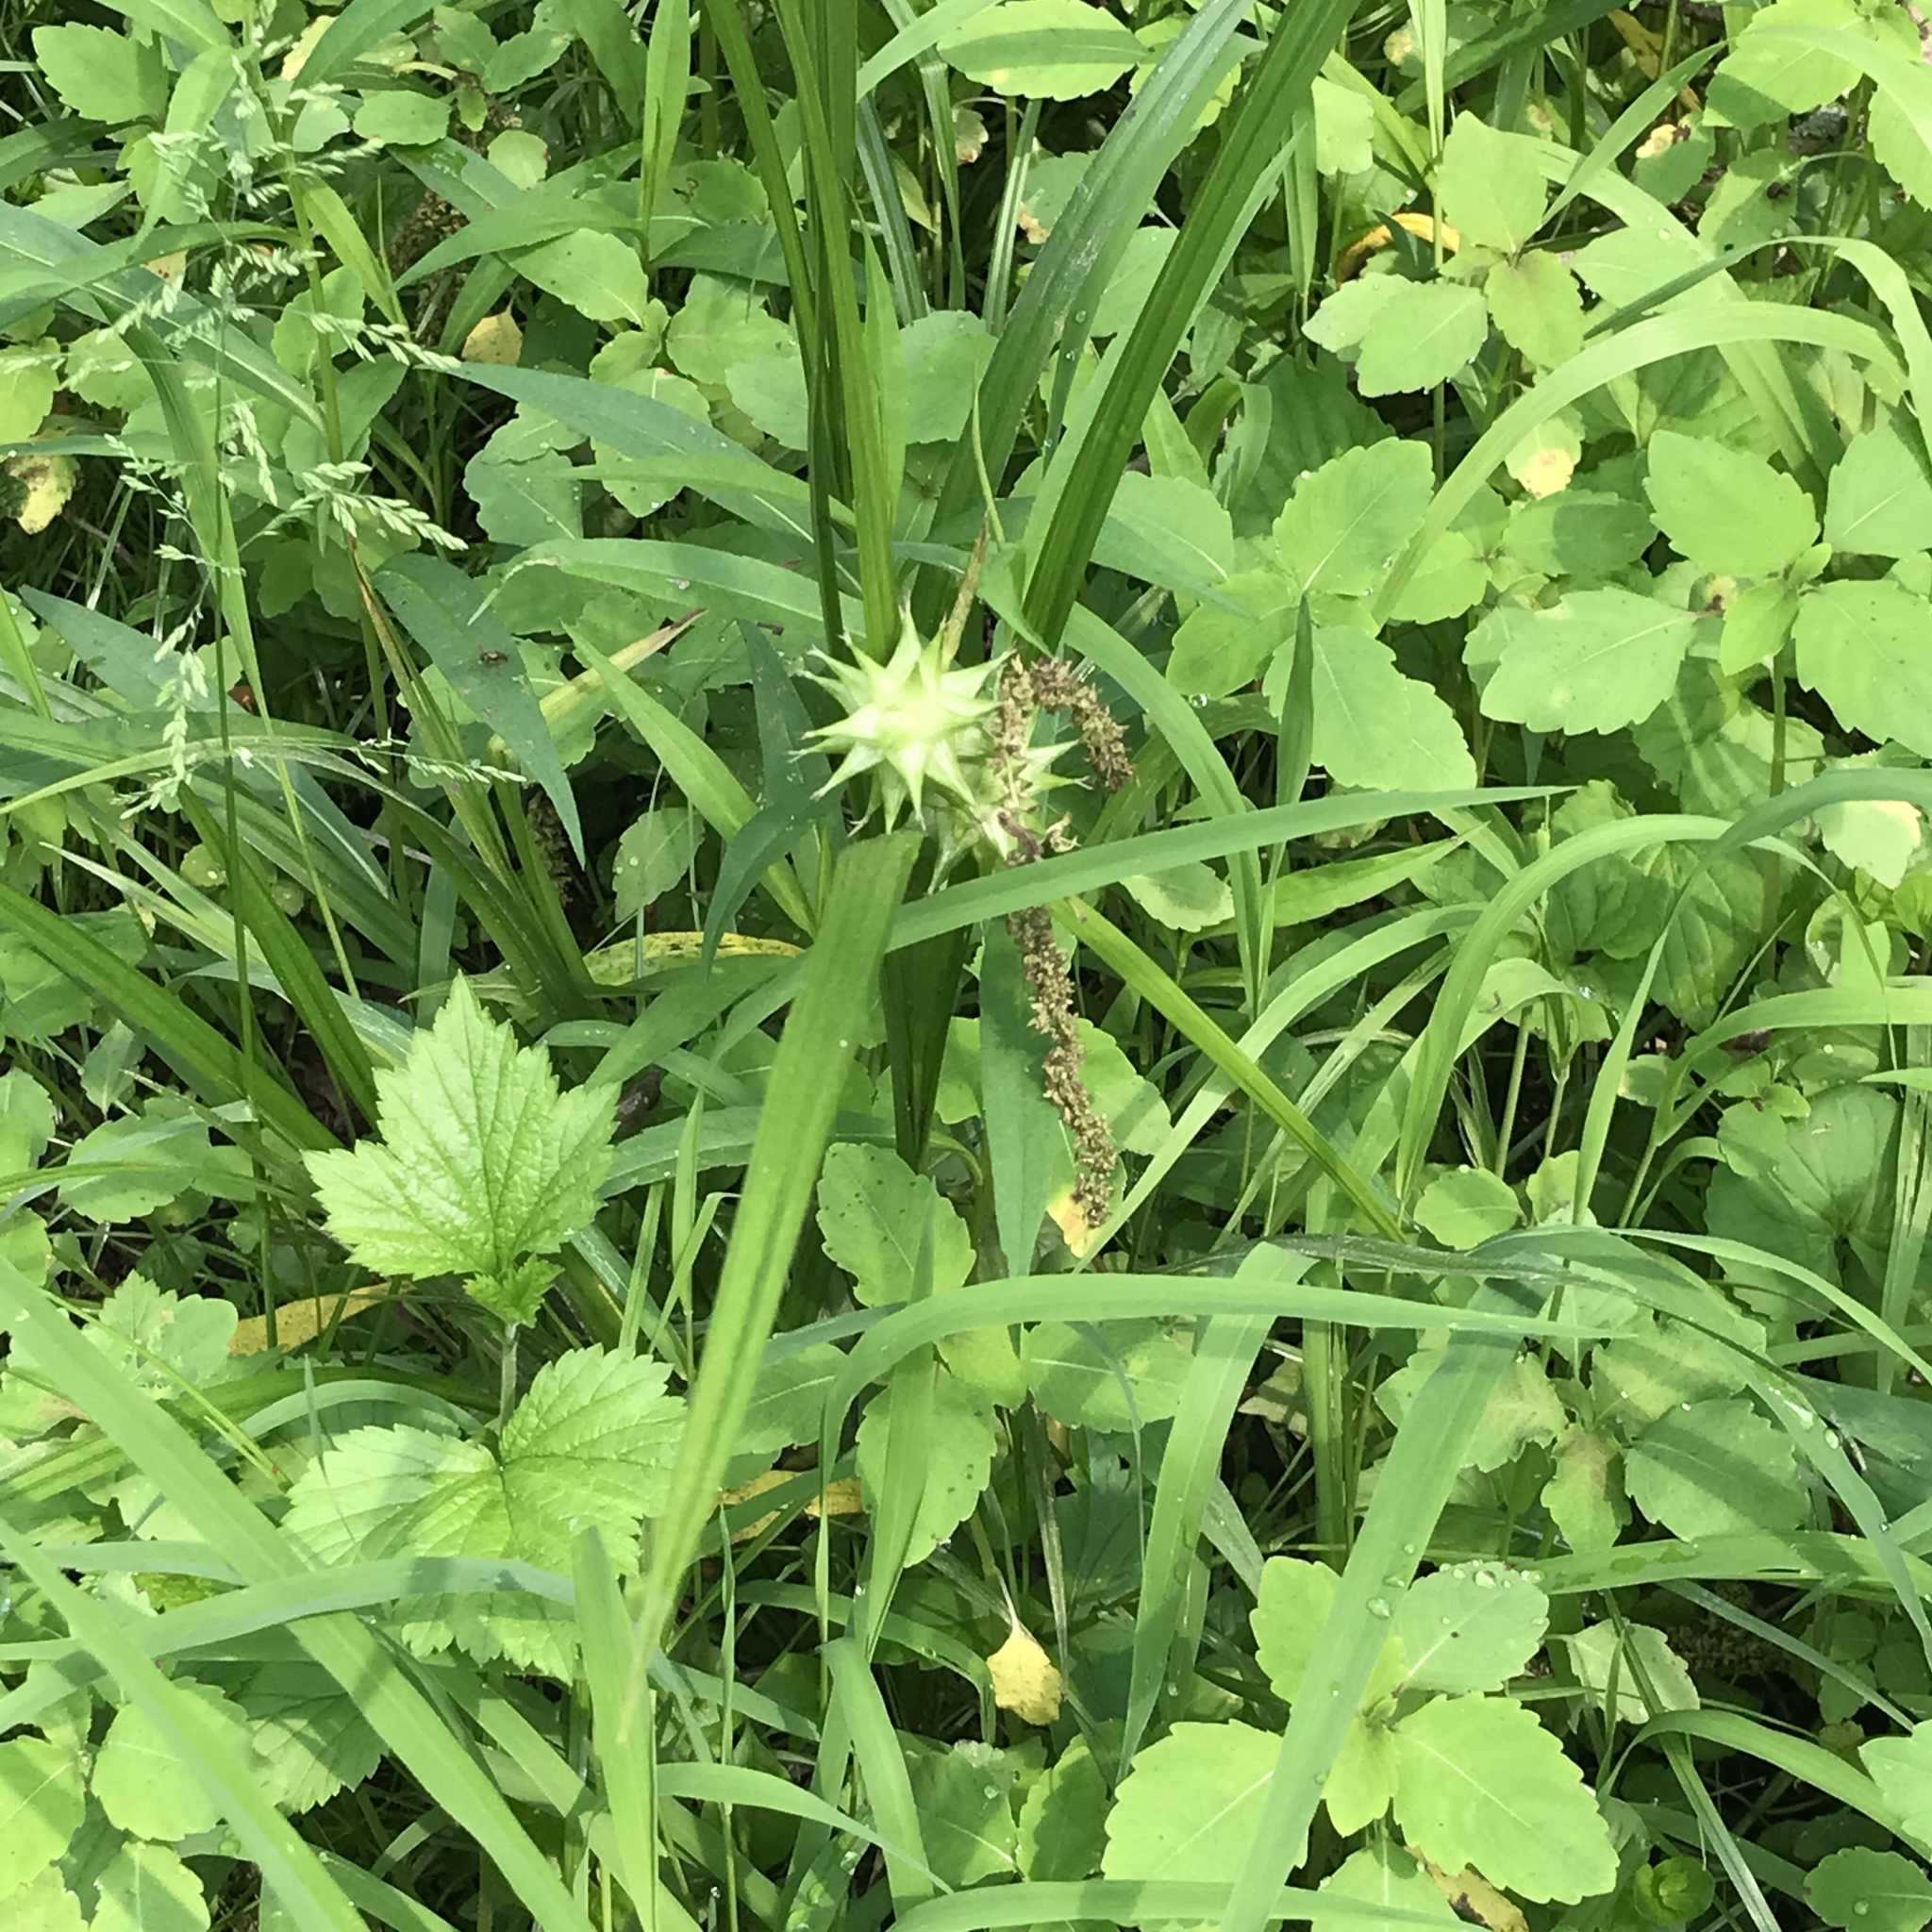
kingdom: Plantae
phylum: Tracheophyta
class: Liliopsida
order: Poales
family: Cyperaceae
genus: Carex
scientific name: Carex grayi
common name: Asa gray's sedge
